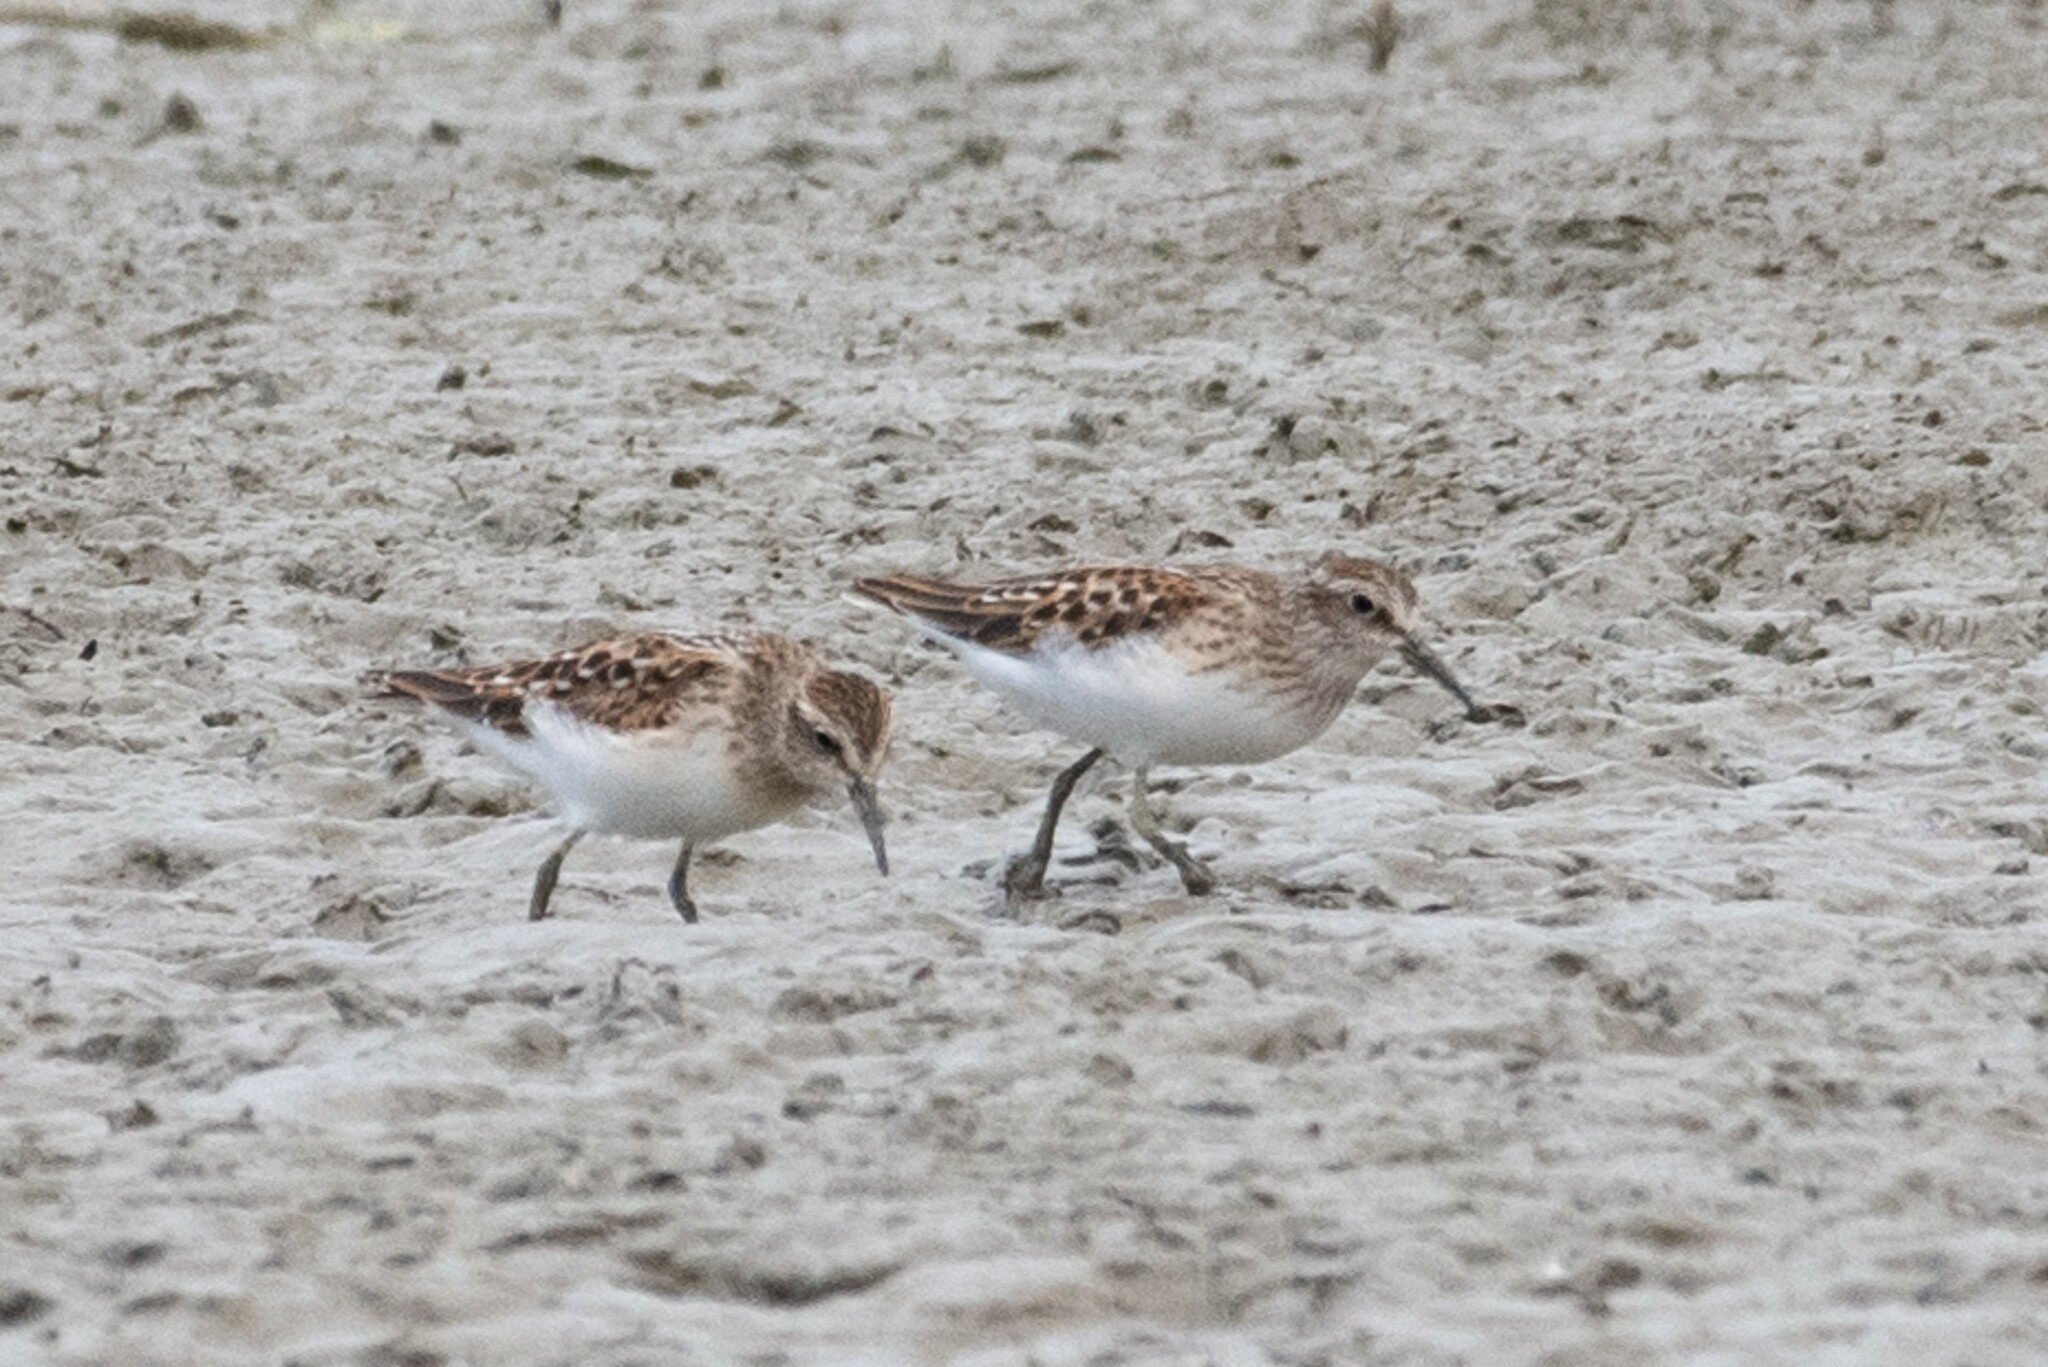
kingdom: Animalia
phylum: Chordata
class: Aves
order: Charadriiformes
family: Scolopacidae
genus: Calidris
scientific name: Calidris minutilla
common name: Least sandpiper
